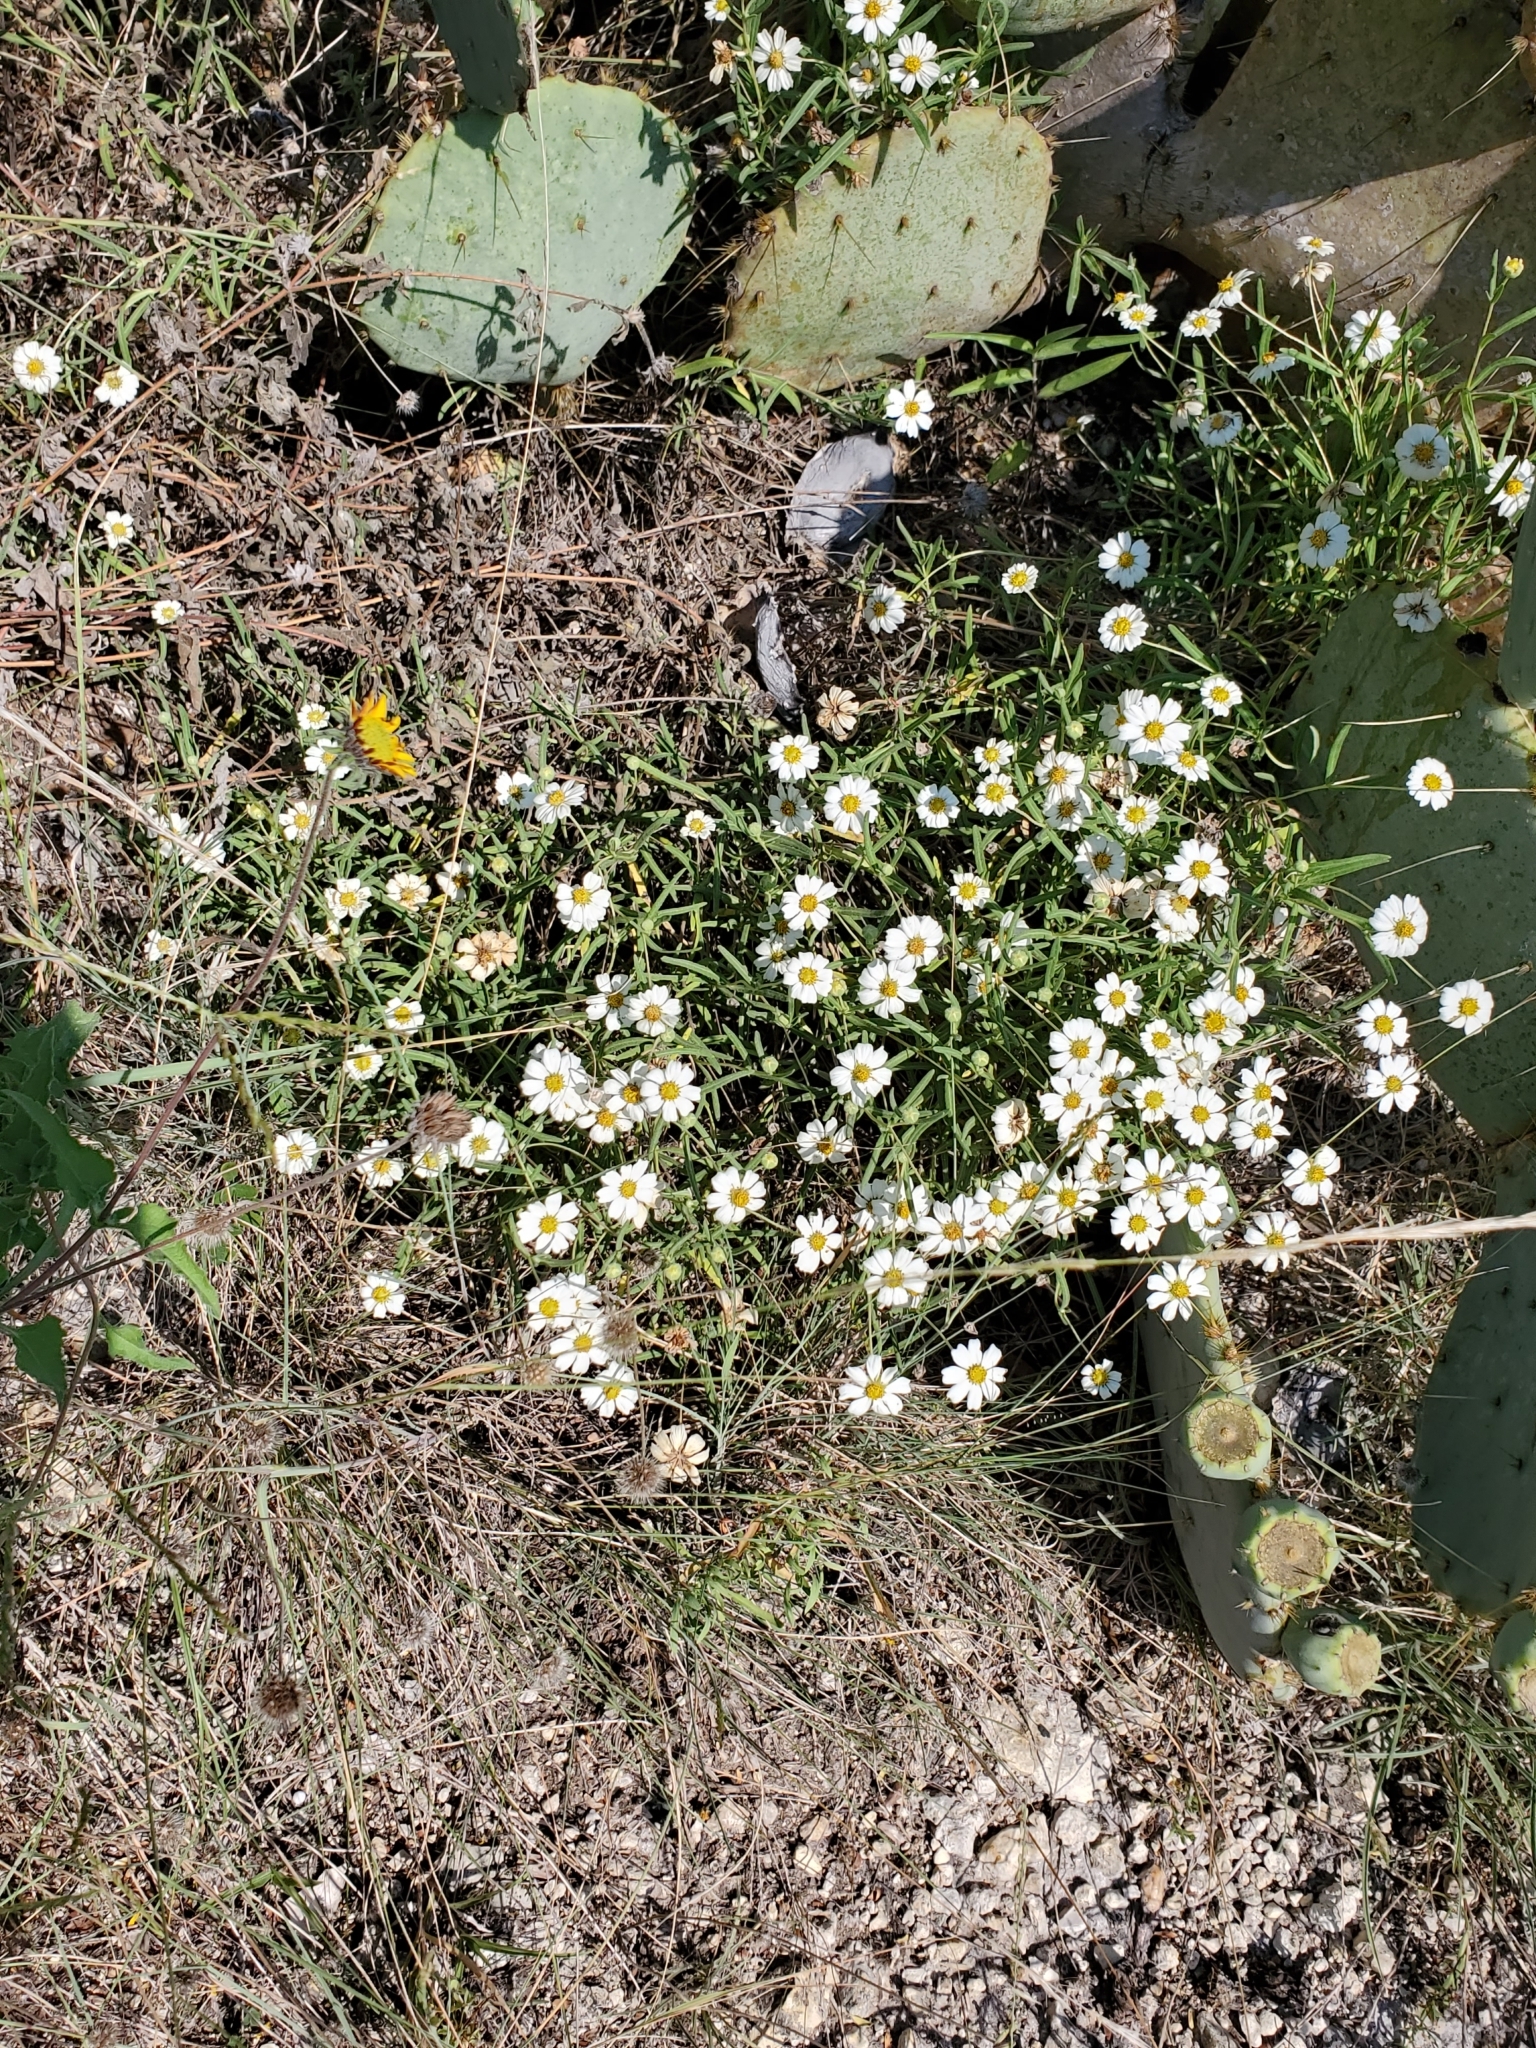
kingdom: Plantae
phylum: Tracheophyta
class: Magnoliopsida
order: Asterales
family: Asteraceae
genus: Melampodium
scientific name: Melampodium leucanthum
